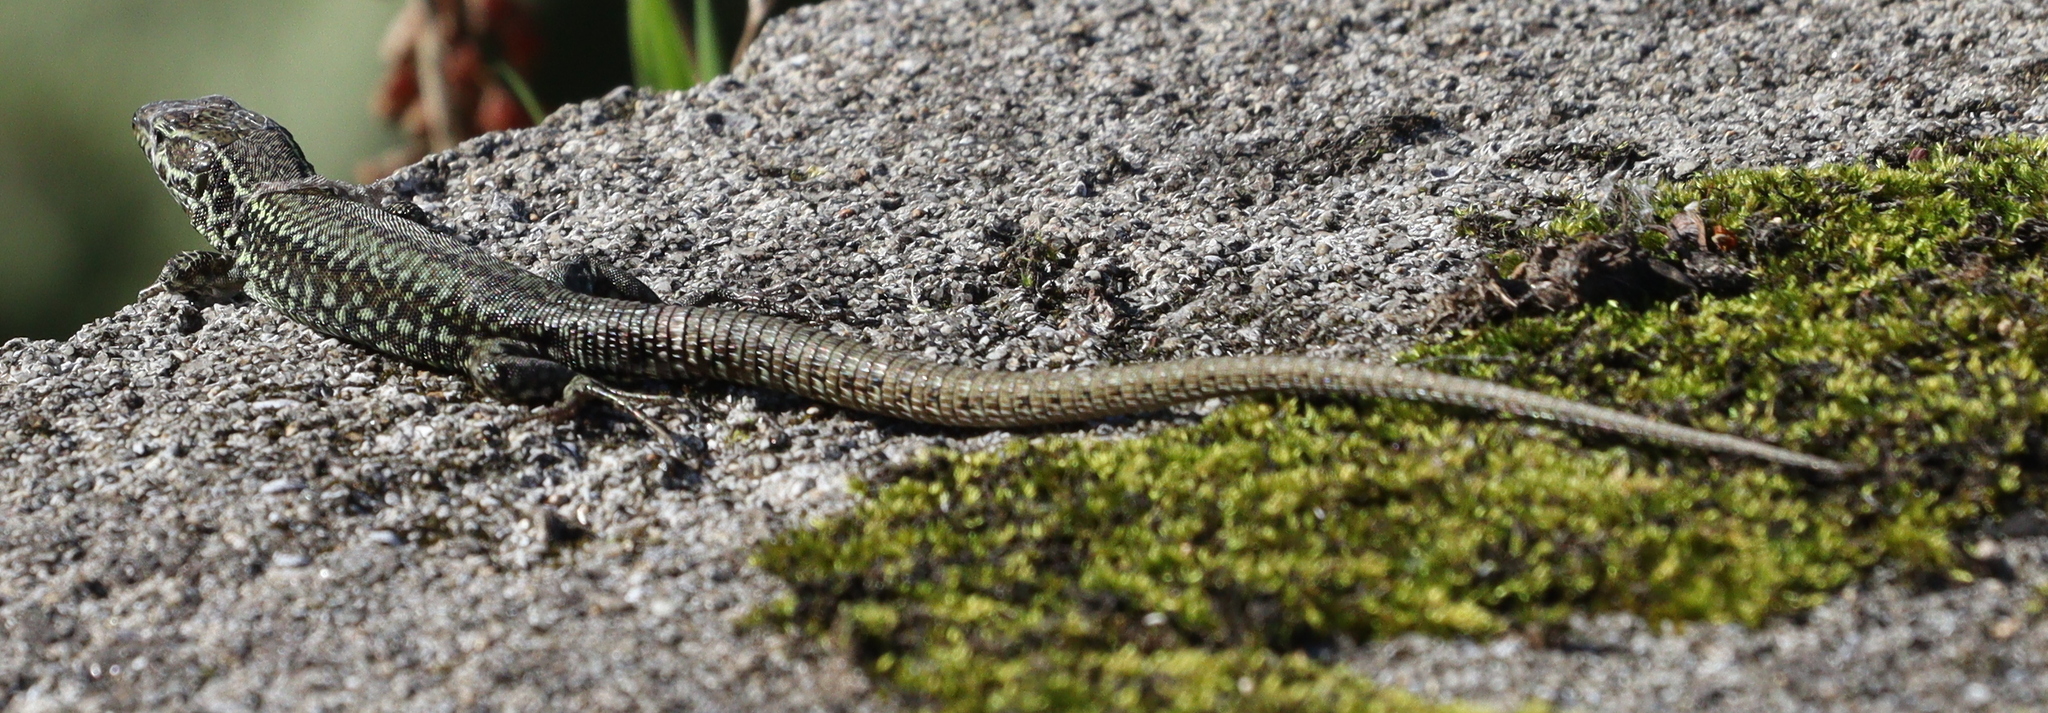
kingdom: Animalia
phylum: Chordata
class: Squamata
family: Lacertidae
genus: Podarcis
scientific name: Podarcis muralis
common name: Common wall lizard
